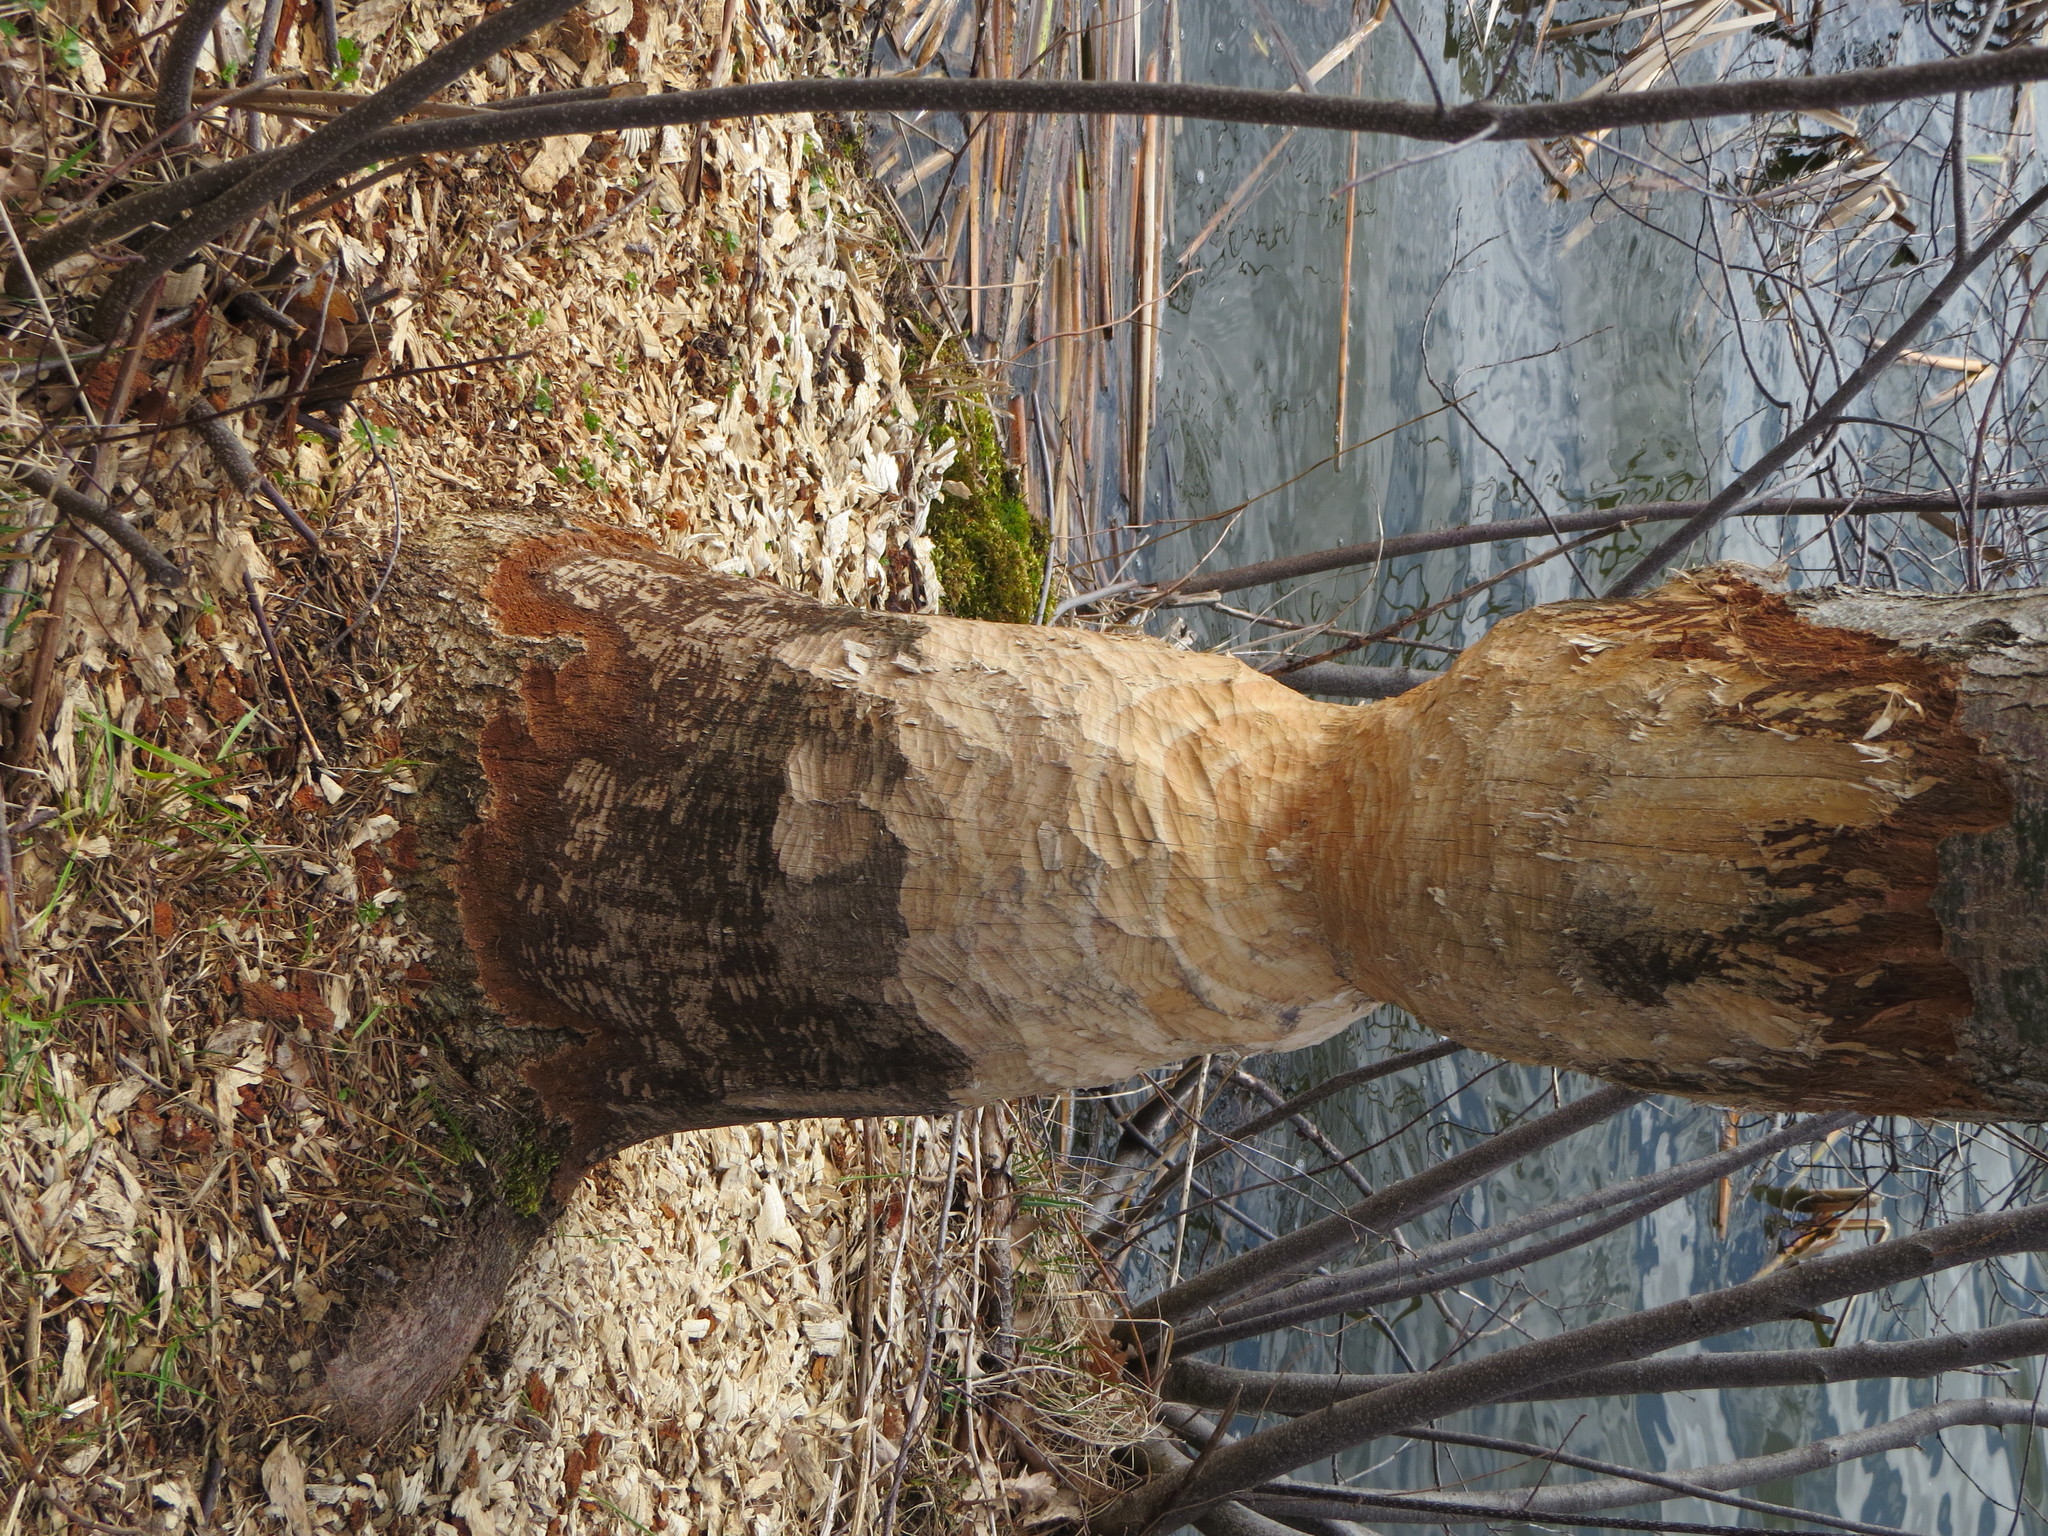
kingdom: Animalia
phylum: Chordata
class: Mammalia
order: Rodentia
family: Castoridae
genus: Castor
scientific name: Castor canadensis
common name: American beaver
